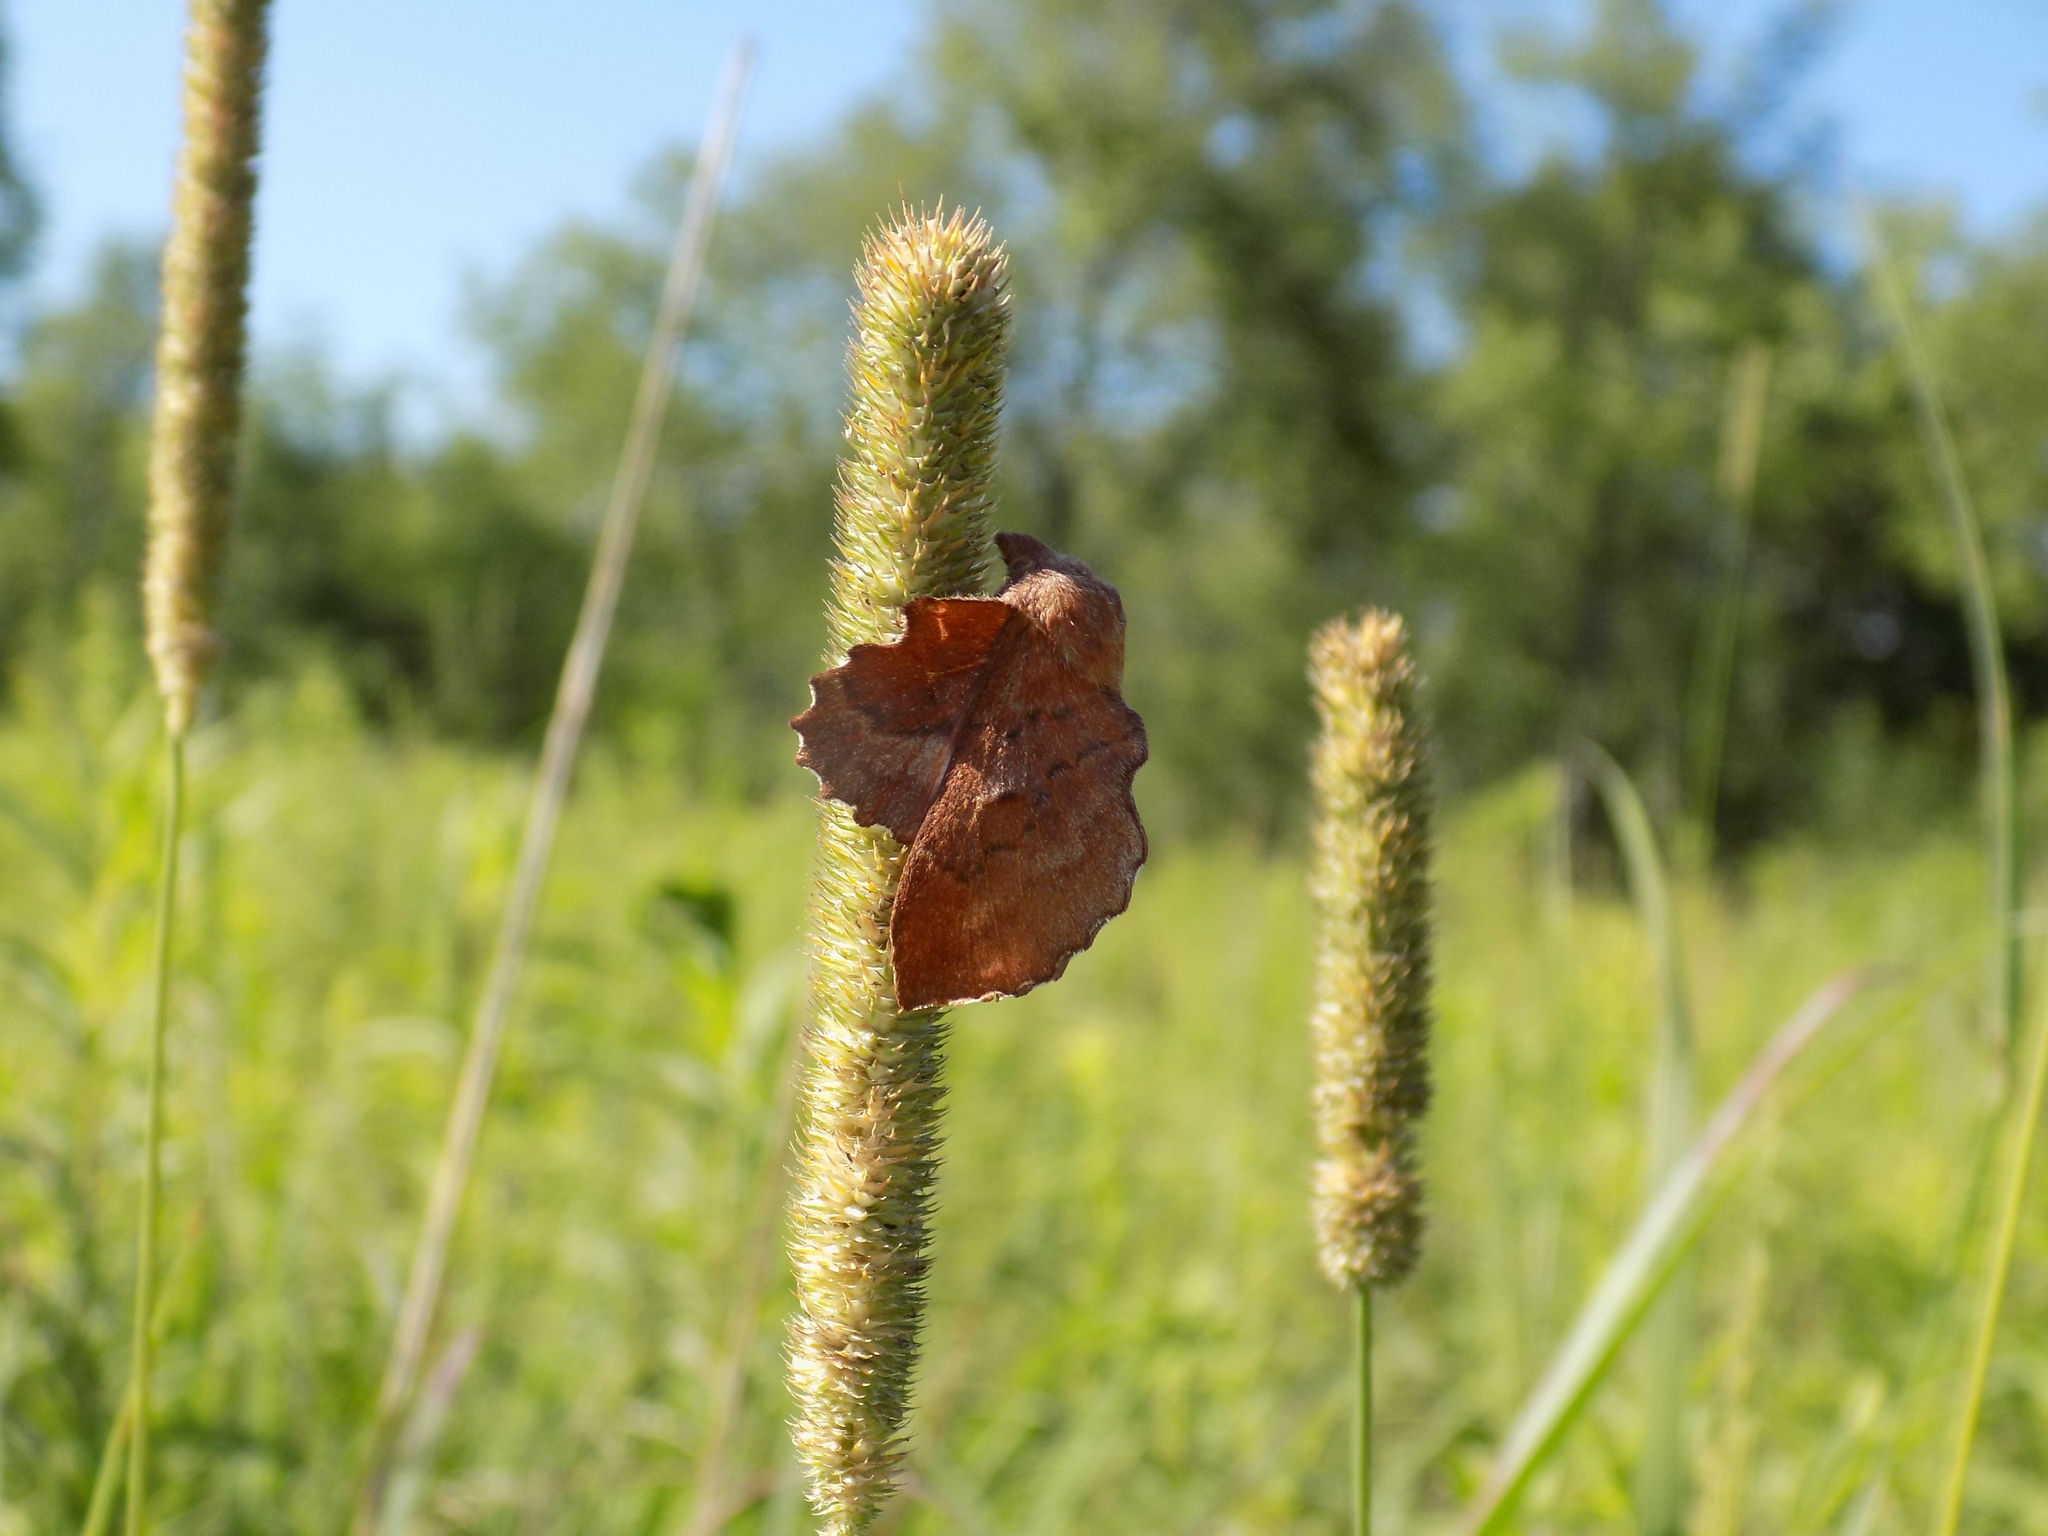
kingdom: Animalia
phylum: Arthropoda
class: Insecta
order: Lepidoptera
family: Lasiocampidae
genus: Phyllodesma
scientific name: Phyllodesma americana
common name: American lappet moth
